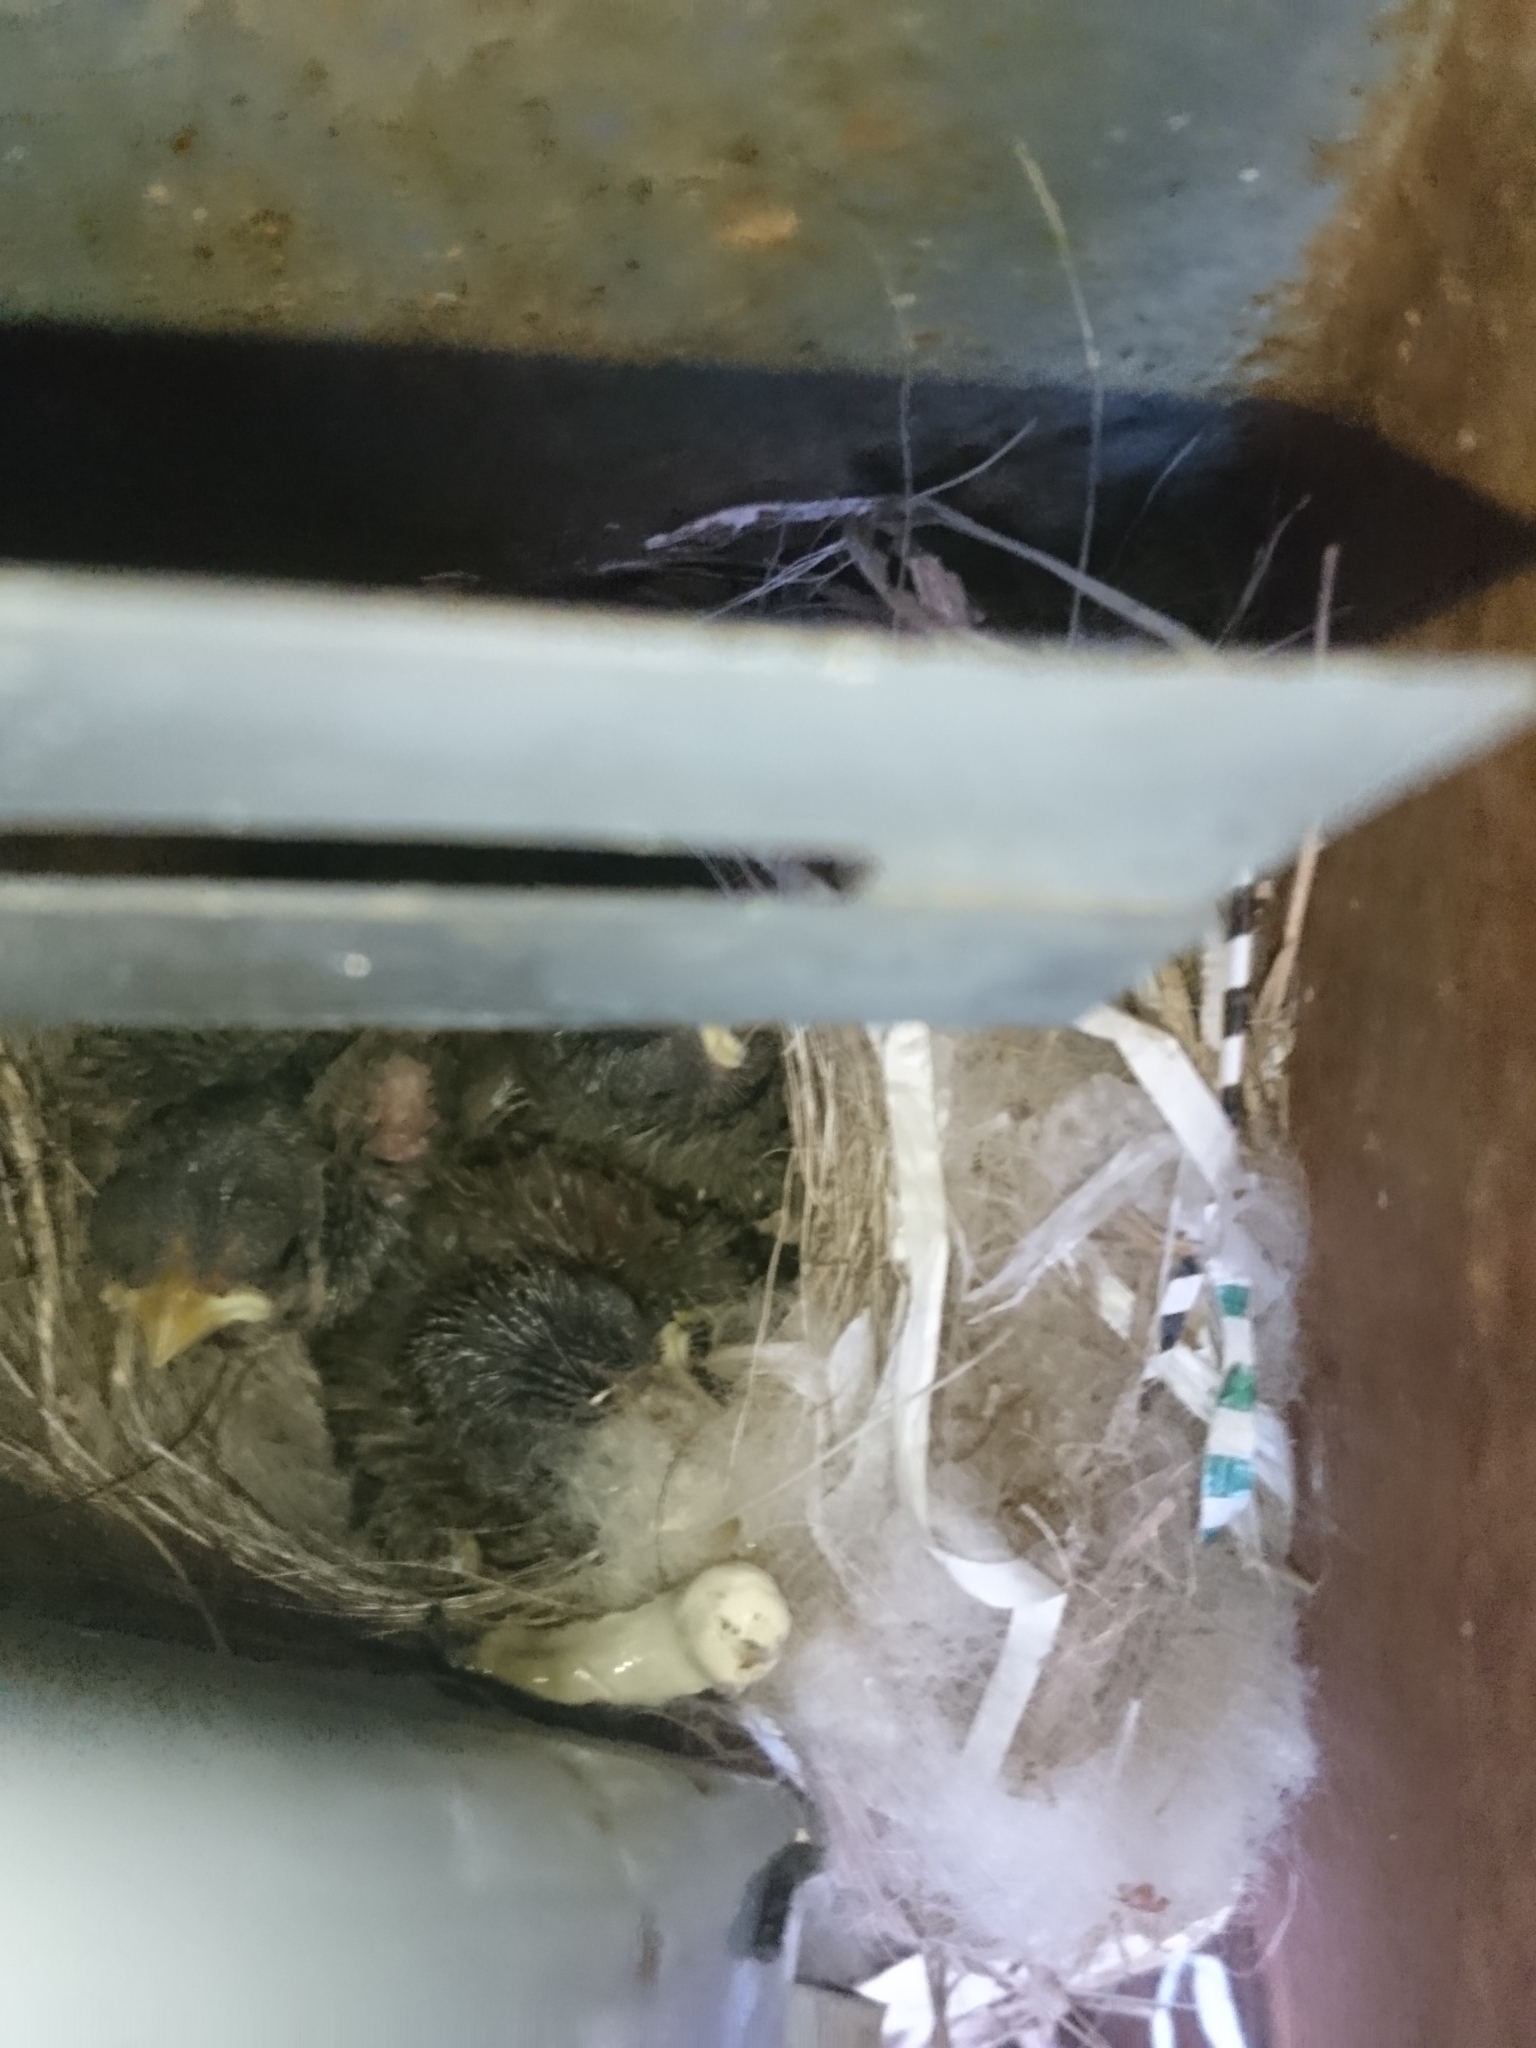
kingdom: Animalia
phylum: Chordata
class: Aves
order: Passeriformes
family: Thraupidae
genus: Sicalis
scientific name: Sicalis flaveola
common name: Saffron finch
